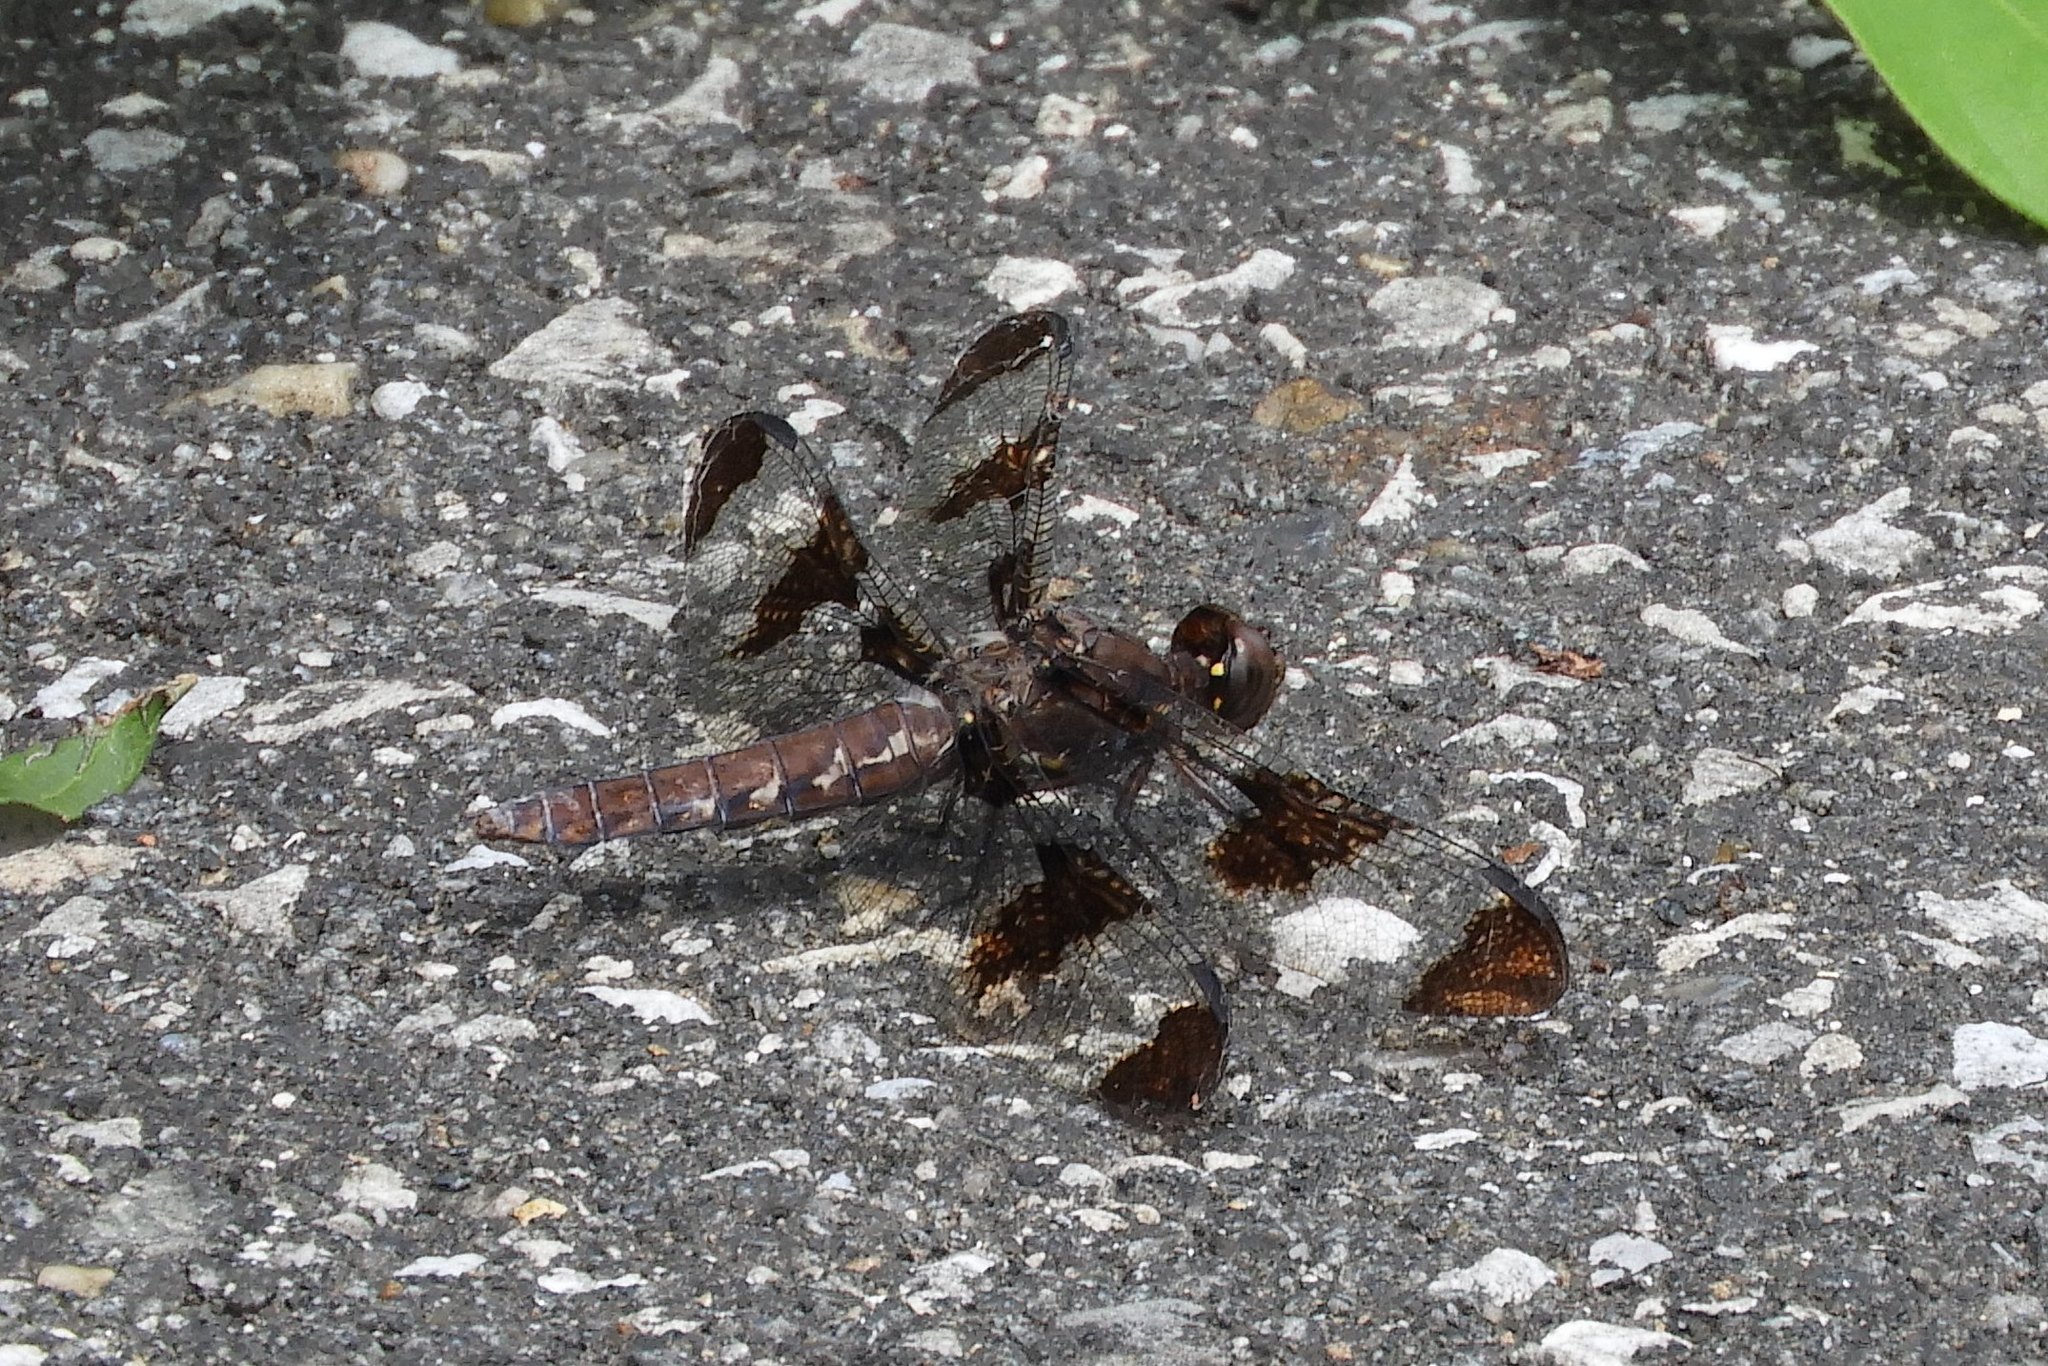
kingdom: Animalia
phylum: Arthropoda
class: Insecta
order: Odonata
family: Libellulidae
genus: Plathemis
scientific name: Plathemis lydia
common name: Common whitetail
